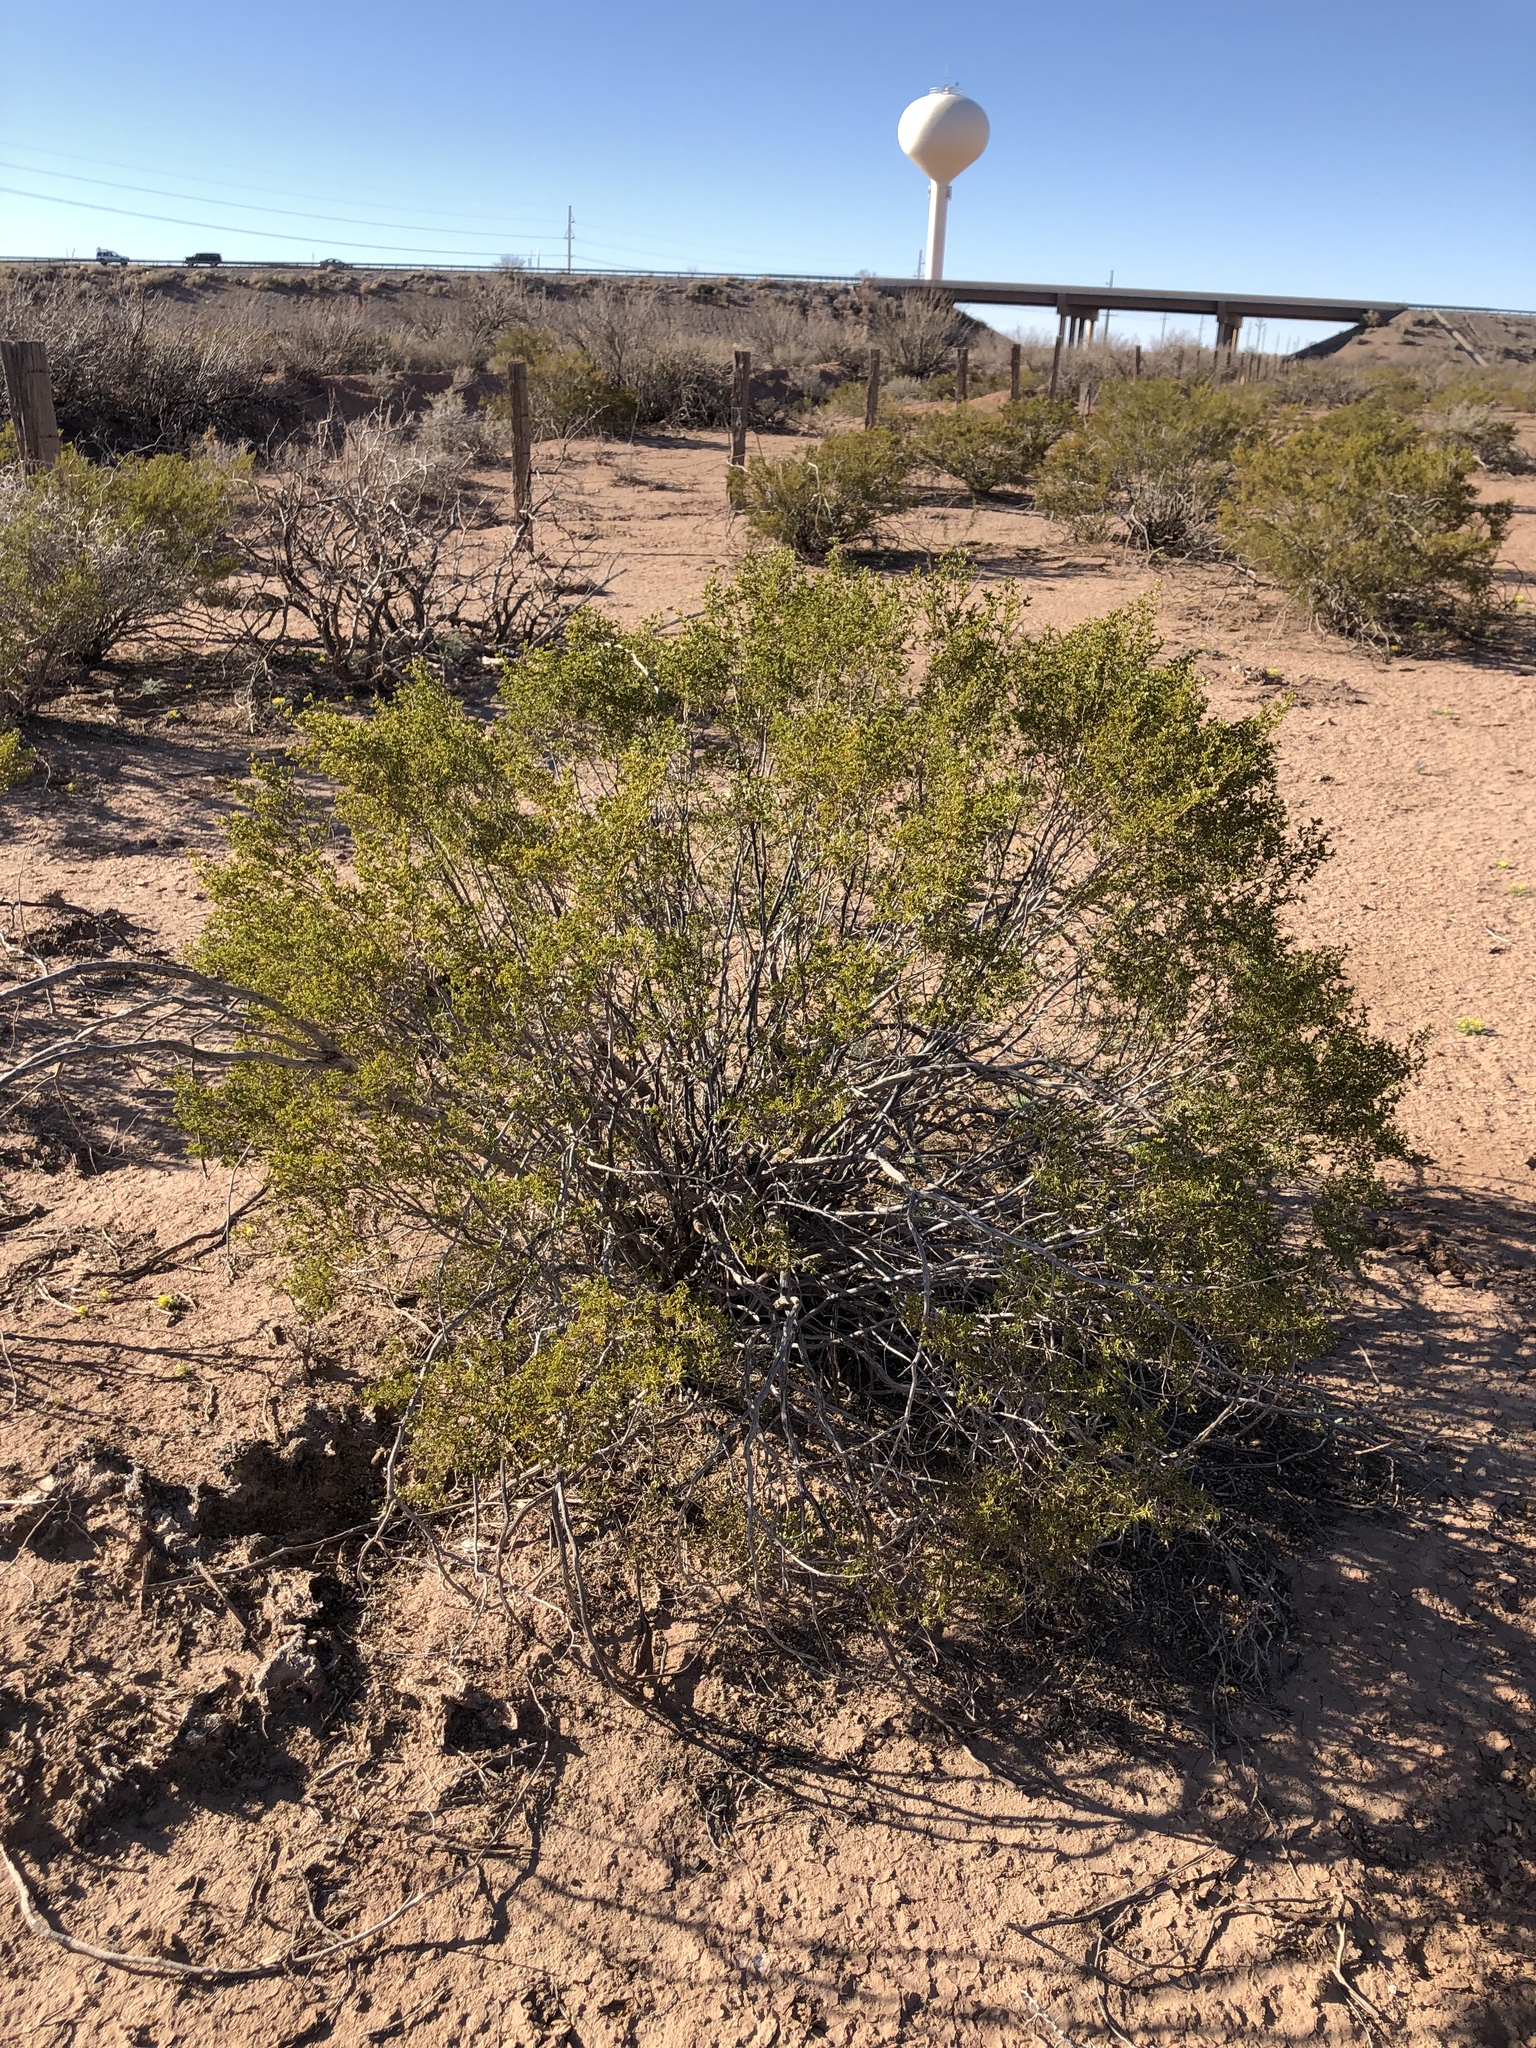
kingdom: Plantae
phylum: Tracheophyta
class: Magnoliopsida
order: Zygophyllales
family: Zygophyllaceae
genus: Larrea
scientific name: Larrea tridentata
